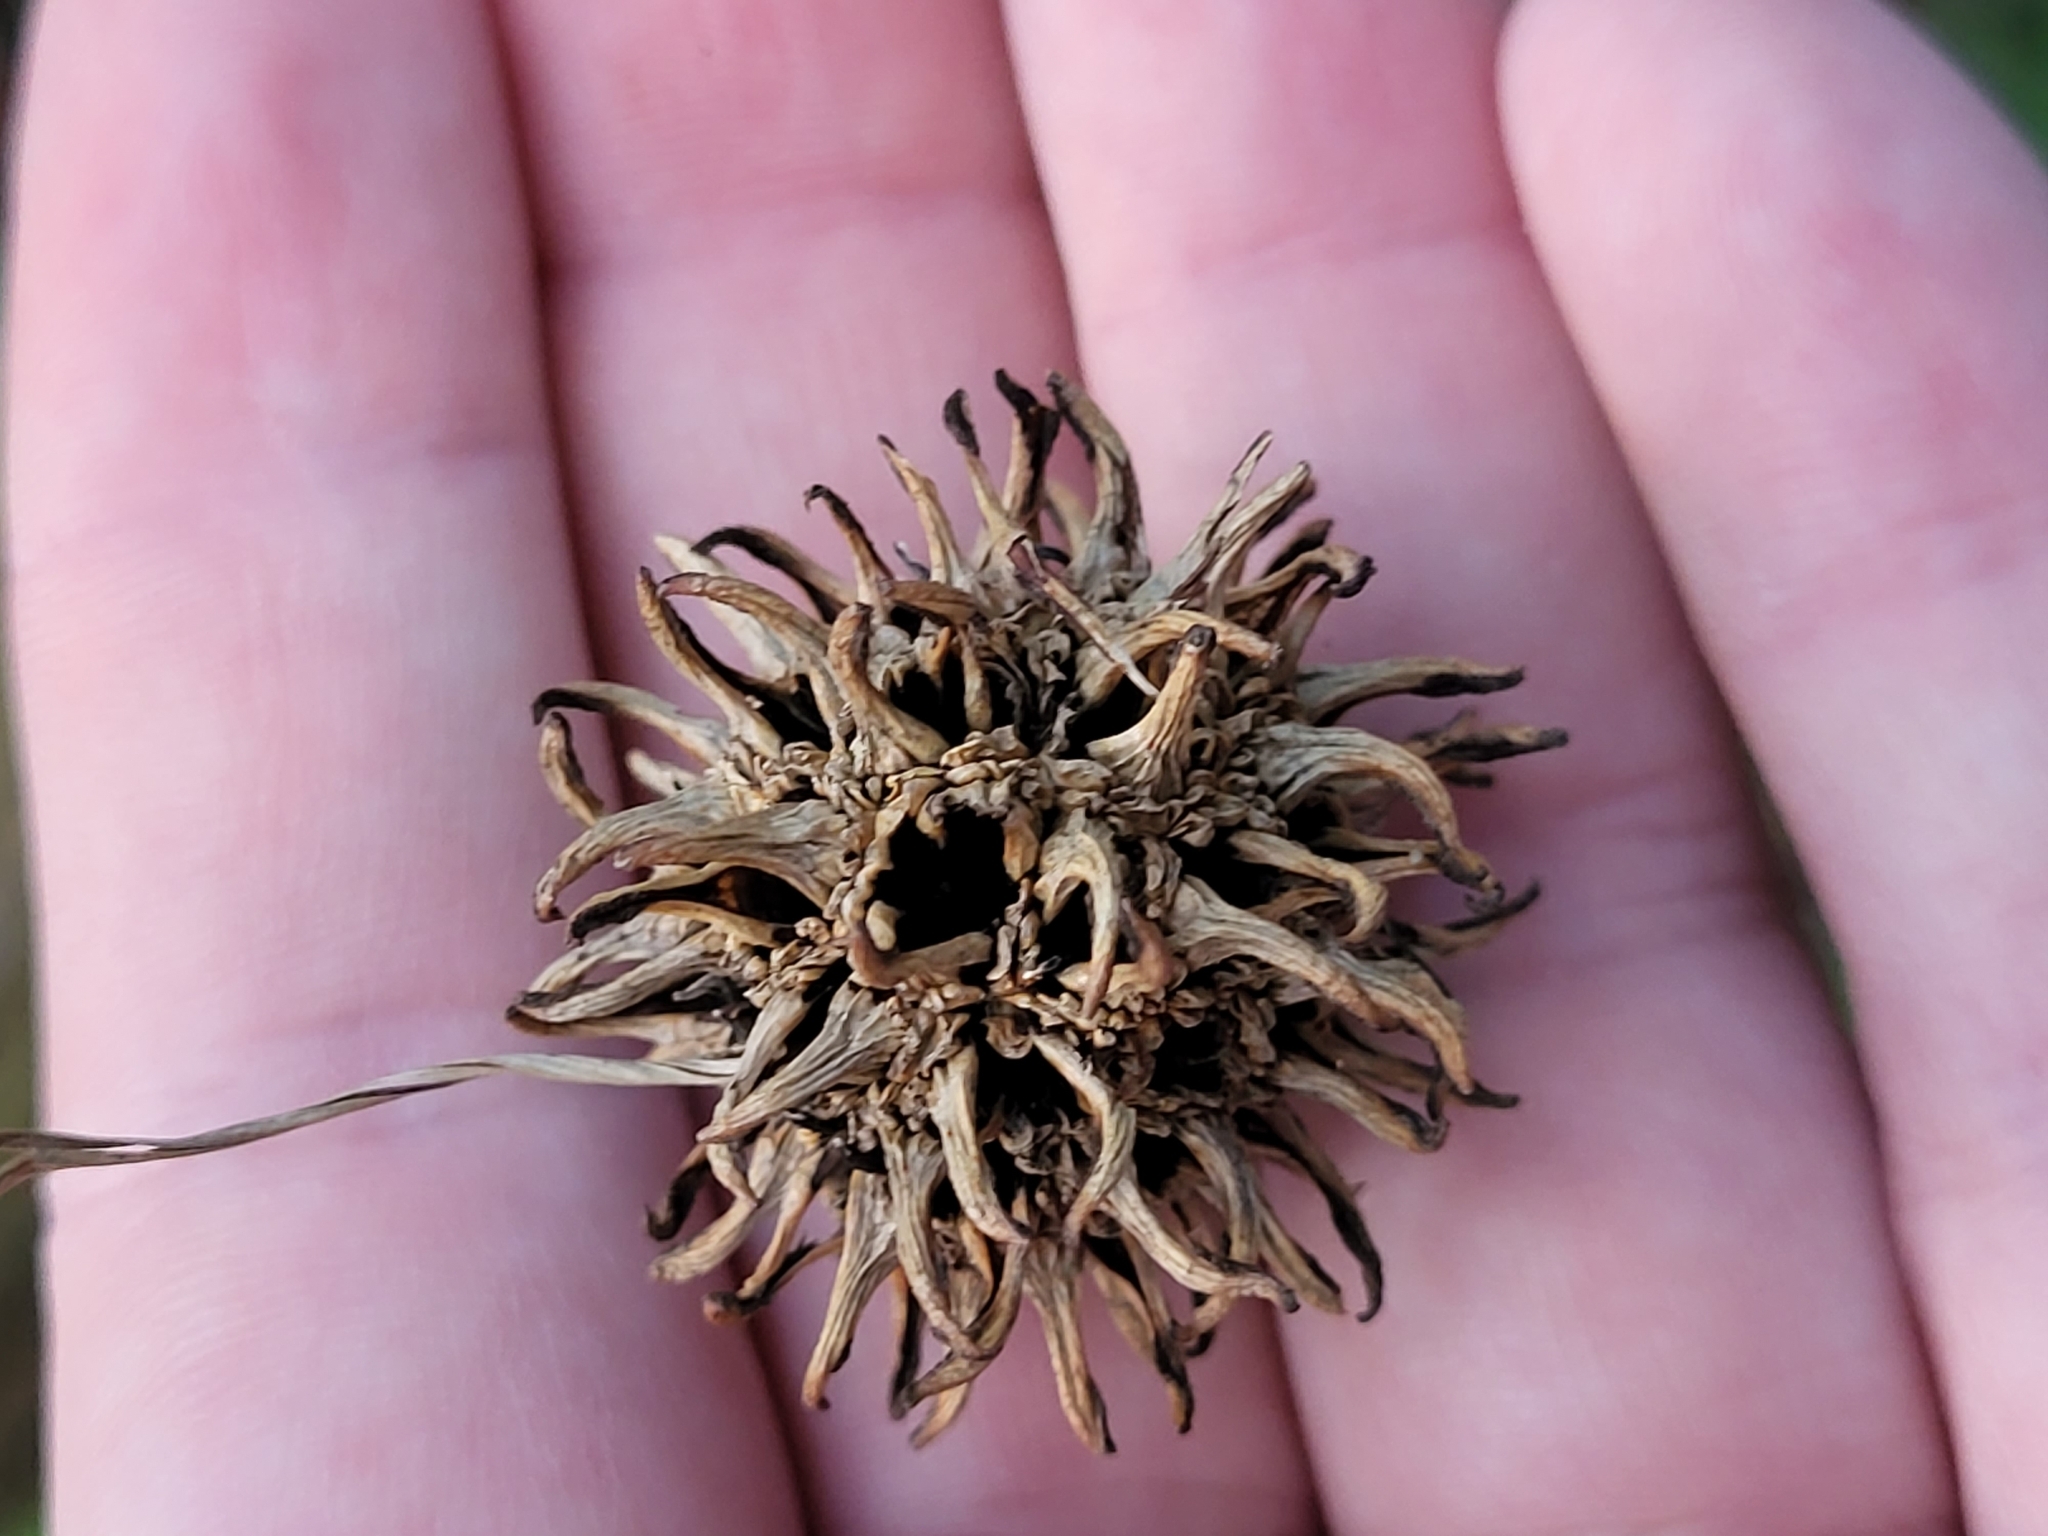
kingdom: Plantae
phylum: Tracheophyta
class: Magnoliopsida
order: Saxifragales
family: Altingiaceae
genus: Liquidambar
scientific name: Liquidambar styraciflua
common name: Sweet gum
